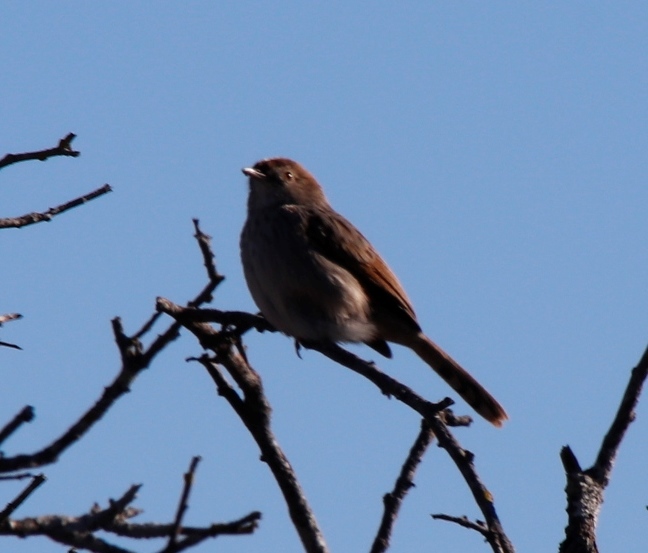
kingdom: Animalia
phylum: Chordata
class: Aves
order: Passeriformes
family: Cisticolidae
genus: Cisticola
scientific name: Cisticola subruficapilla
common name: Grey-backed cisticola
